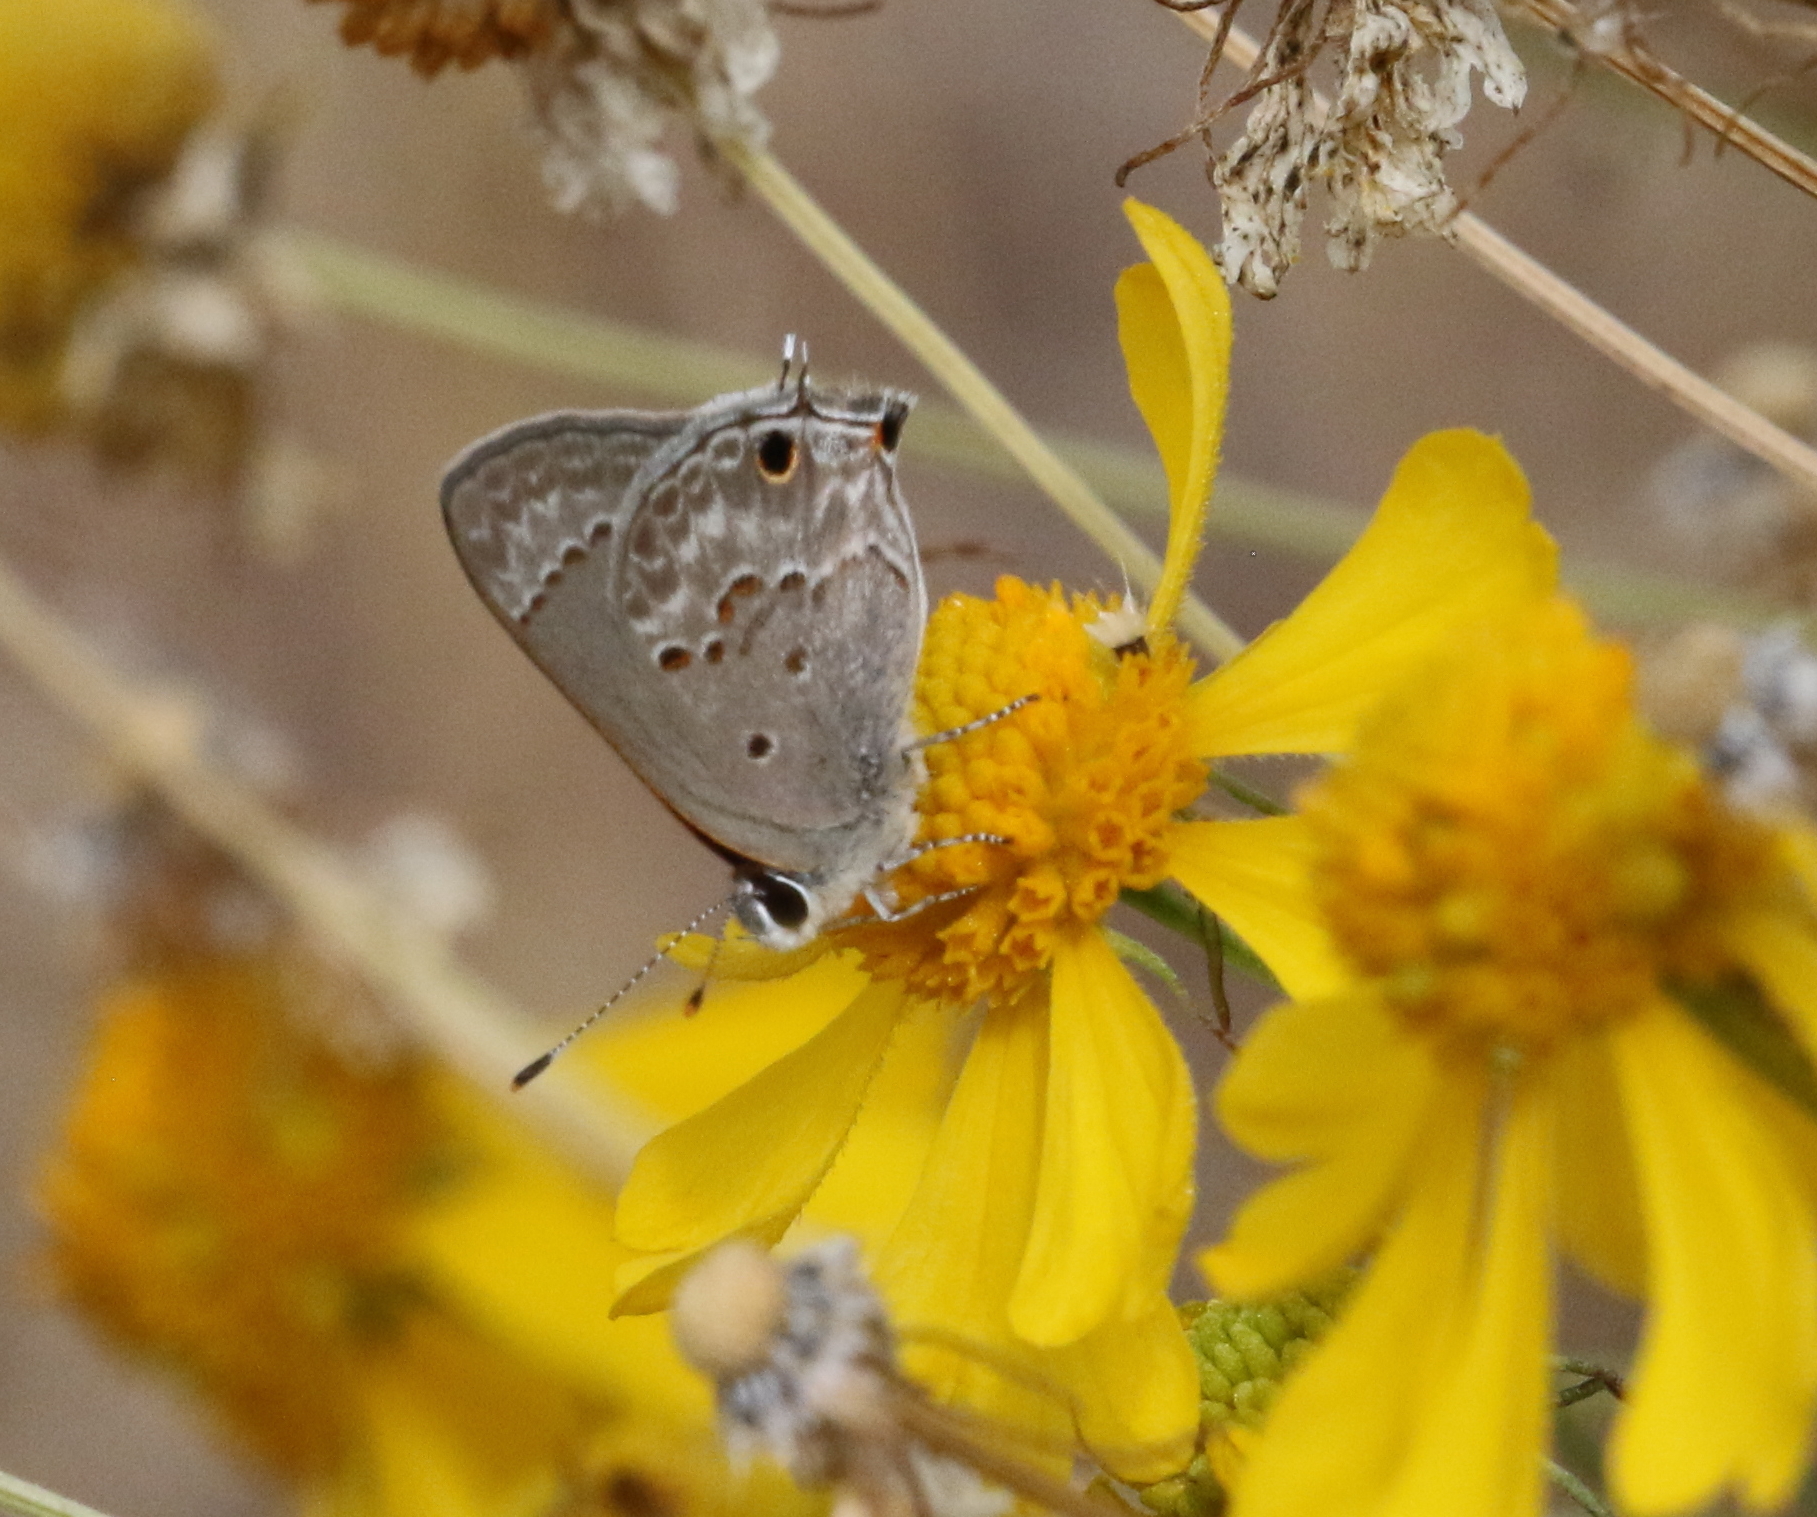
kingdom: Animalia
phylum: Arthropoda
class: Insecta
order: Lepidoptera
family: Lycaenidae
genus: Callicista
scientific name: Callicista columella
